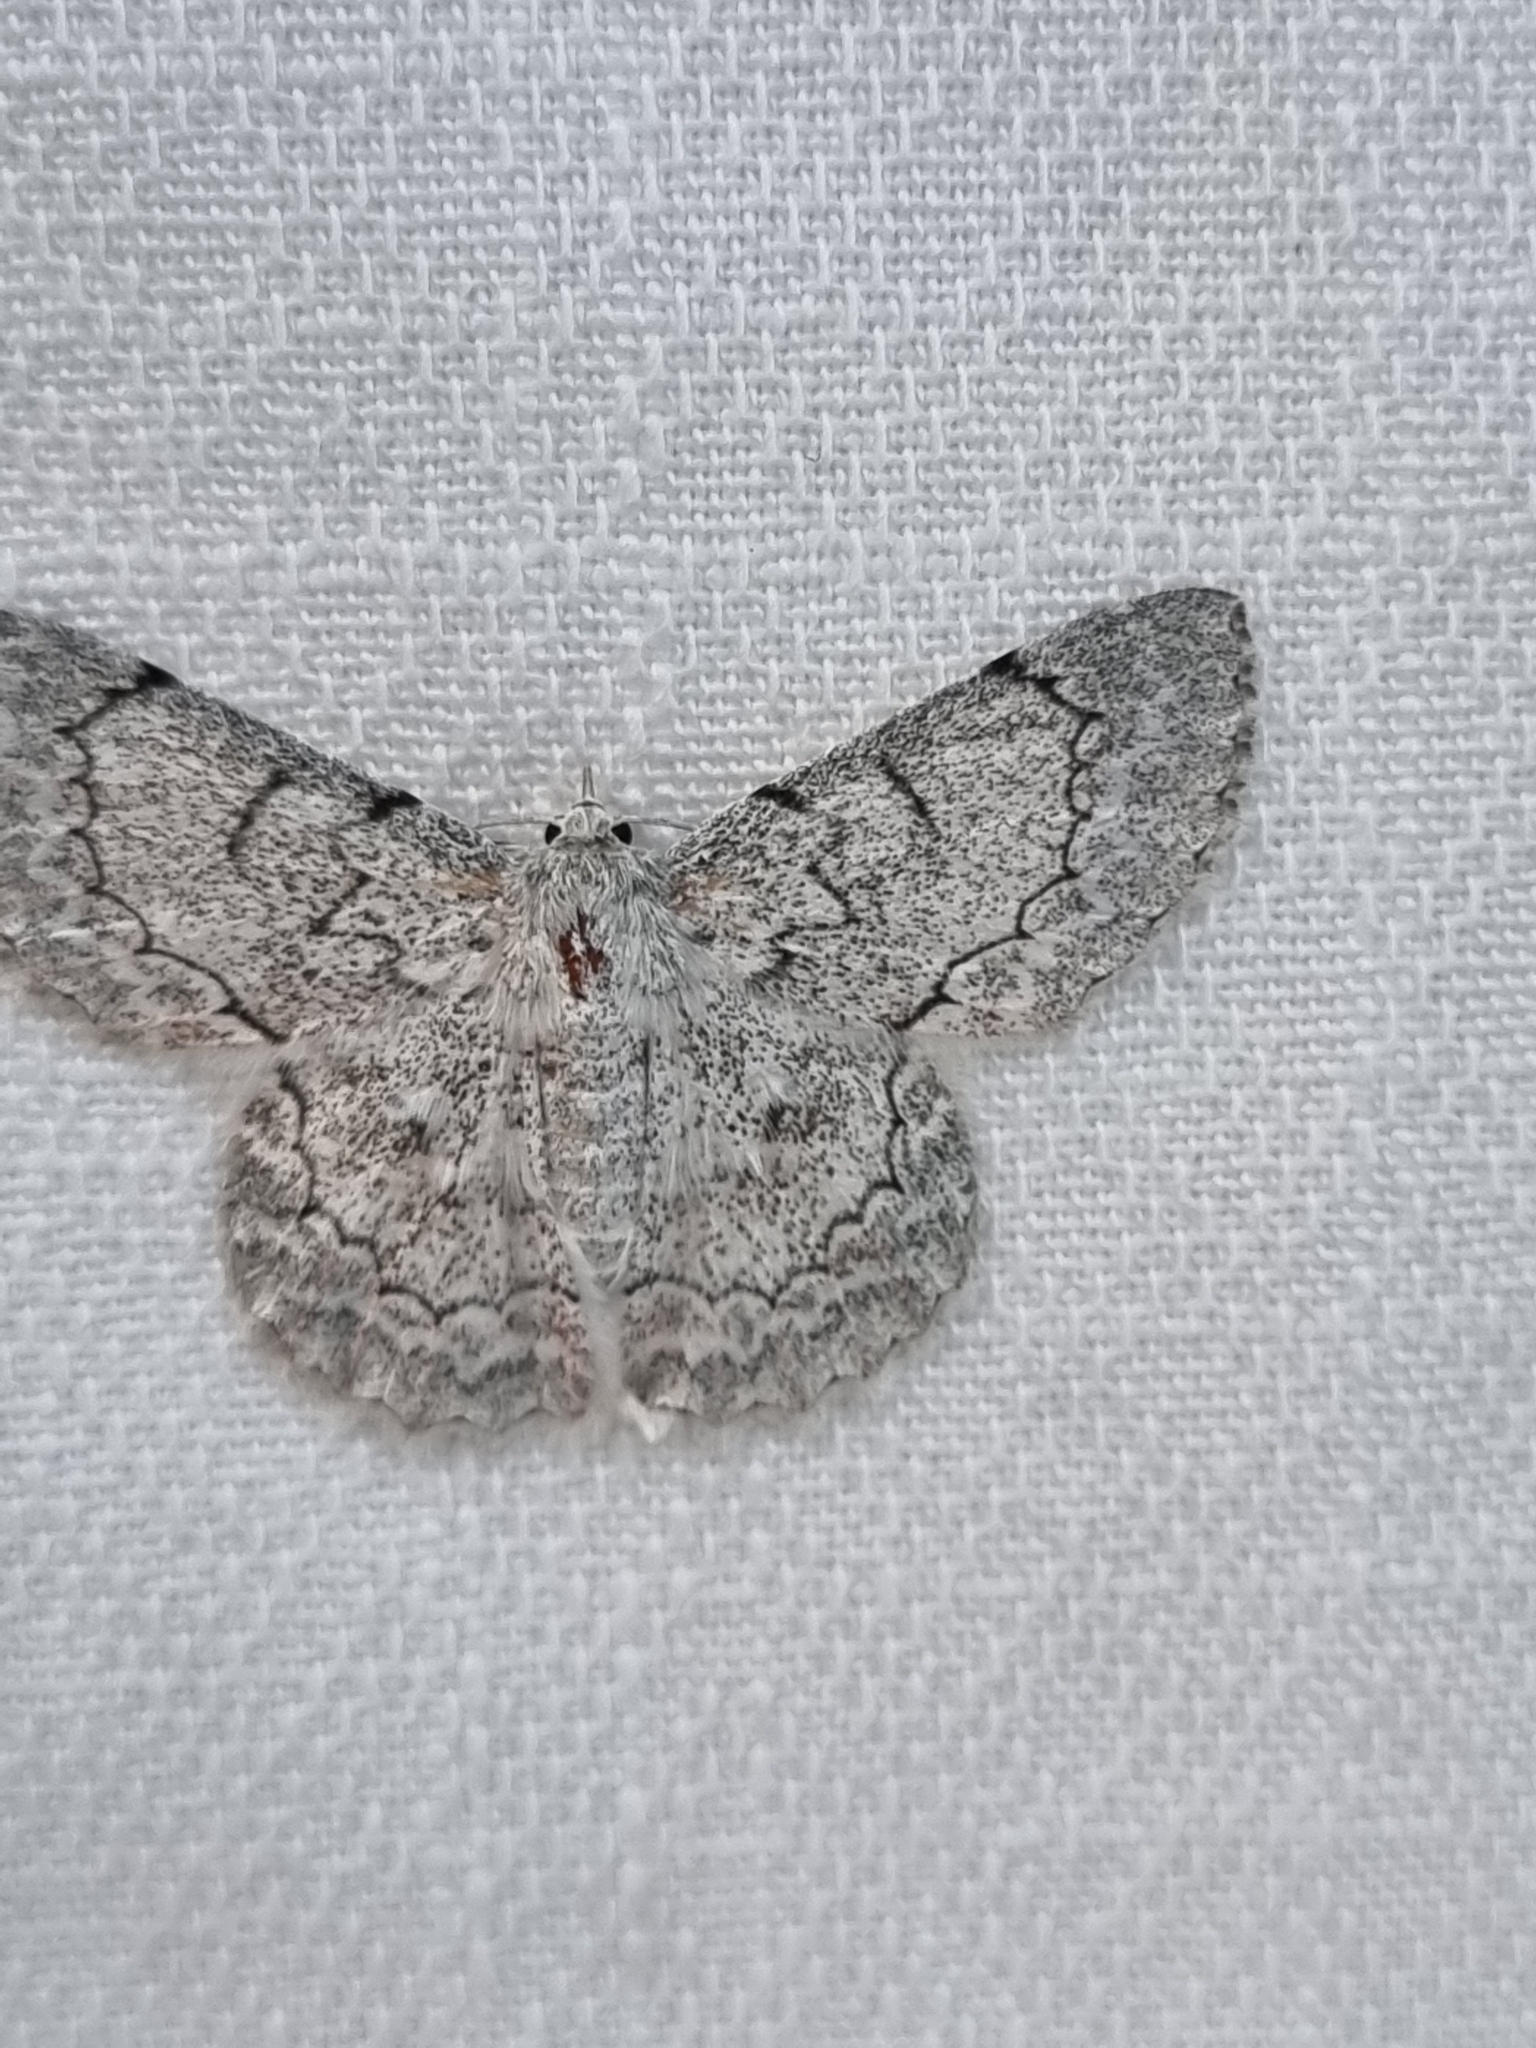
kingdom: Animalia
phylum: Arthropoda
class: Insecta
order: Lepidoptera
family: Geometridae
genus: Pingasa
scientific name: Pingasa chlora
